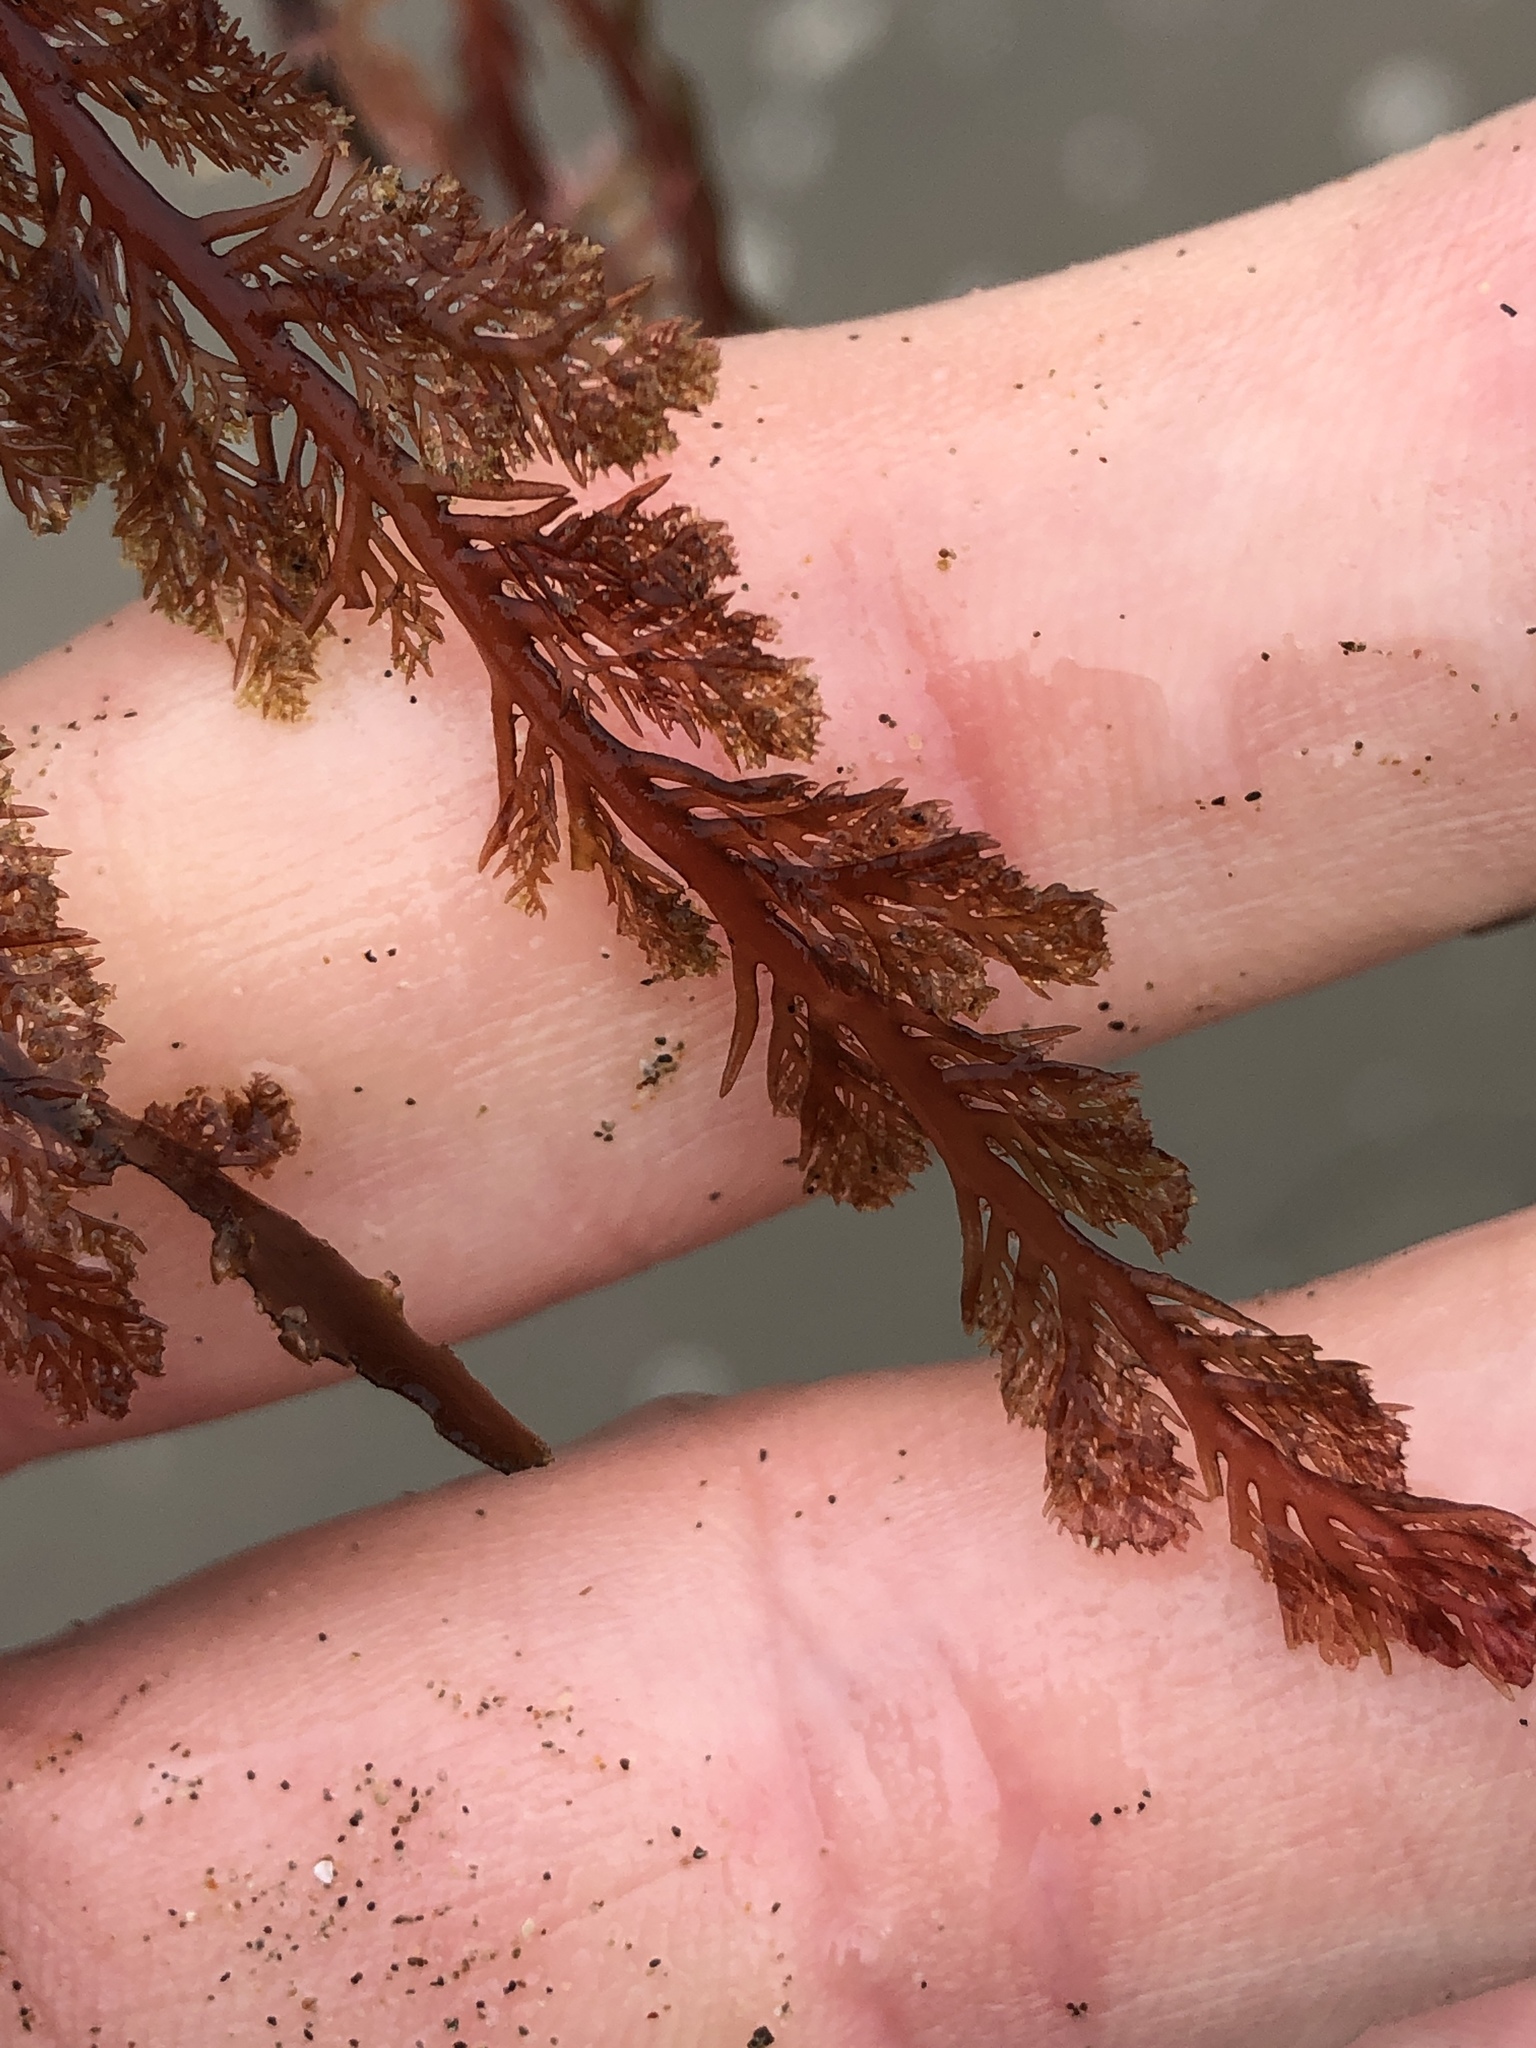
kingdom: Plantae
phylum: Rhodophyta
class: Florideophyceae
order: Plocamiales
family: Plocamiaceae
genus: Plocamium
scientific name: Plocamium cartilagineum
